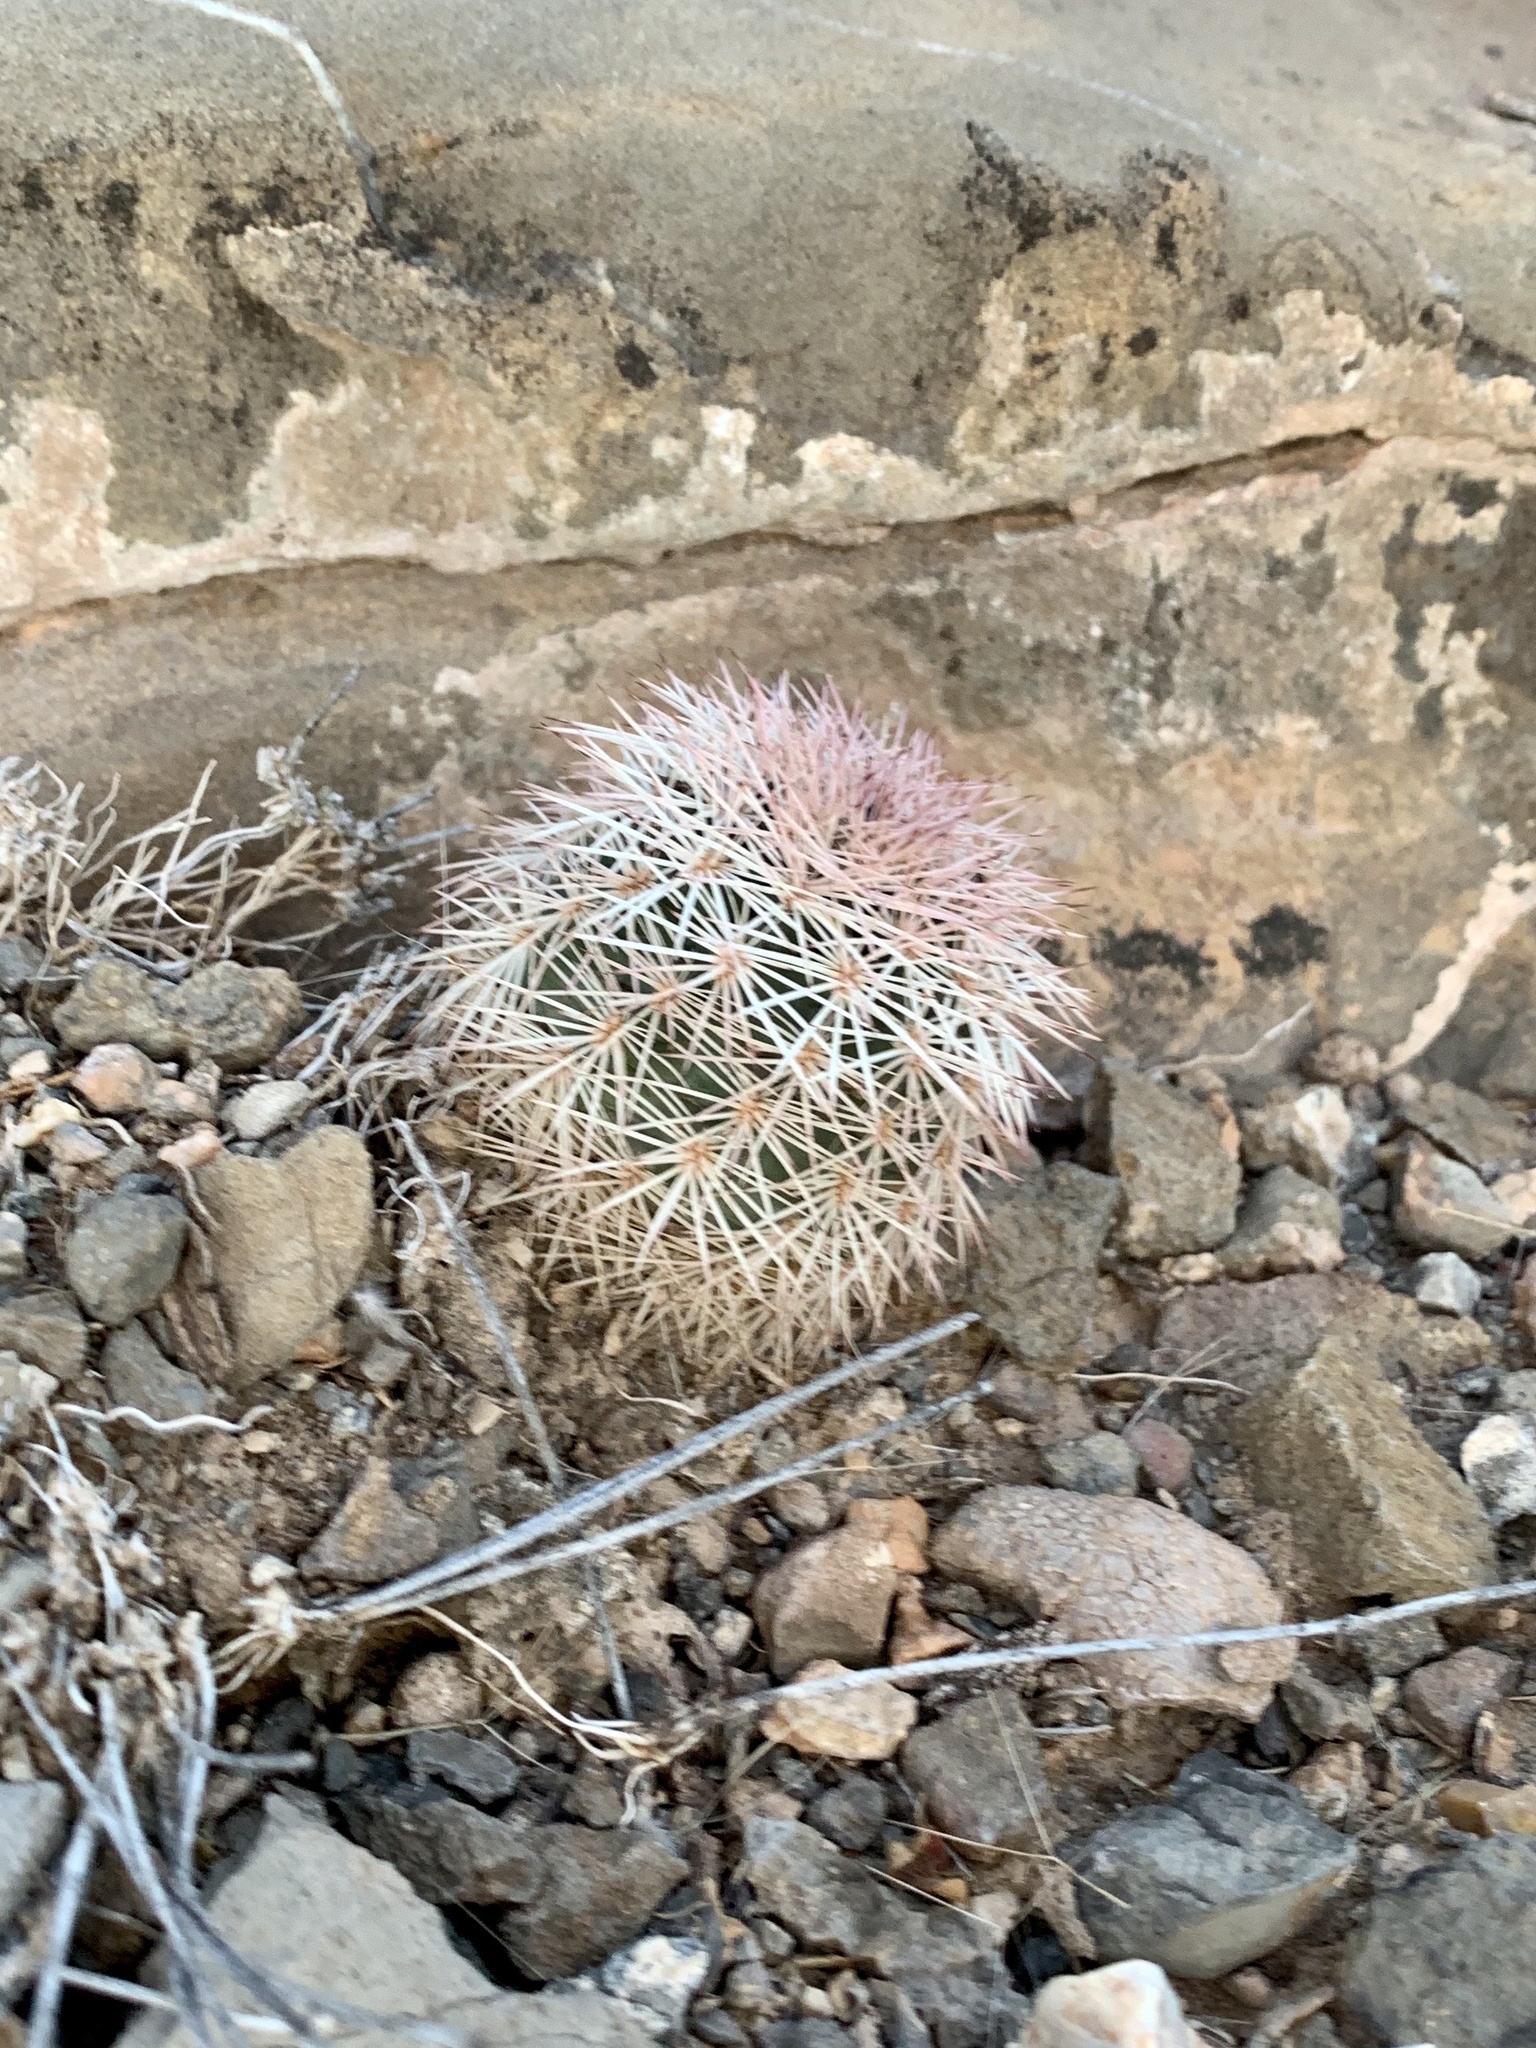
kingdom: Plantae
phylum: Tracheophyta
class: Magnoliopsida
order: Caryophyllales
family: Cactaceae
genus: Echinocereus
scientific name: Echinocereus dasyacanthus
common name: Spiny hedgehog cactus
